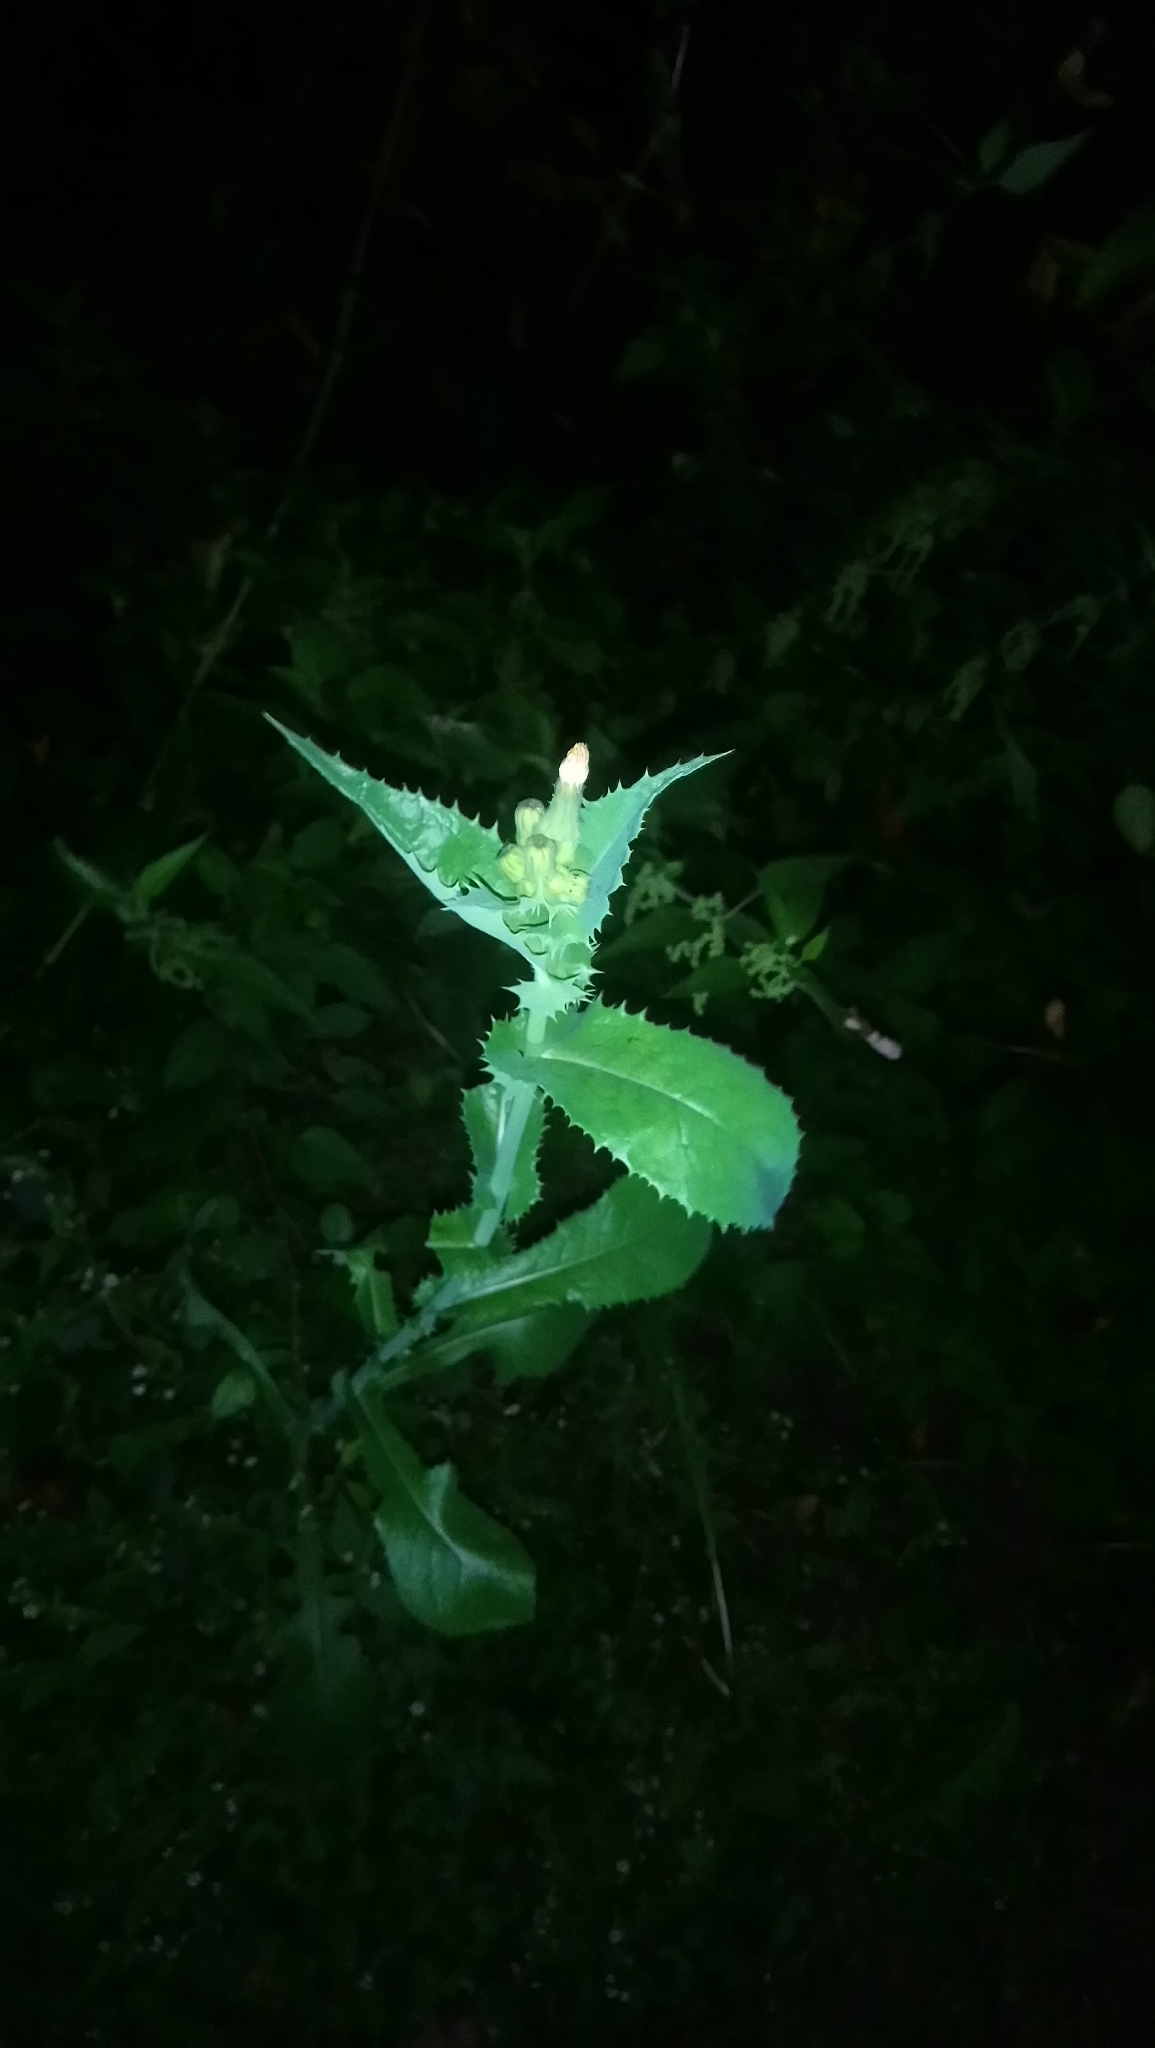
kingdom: Plantae
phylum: Tracheophyta
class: Magnoliopsida
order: Asterales
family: Asteraceae
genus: Sonchus
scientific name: Sonchus asper
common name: Prickly sow-thistle
